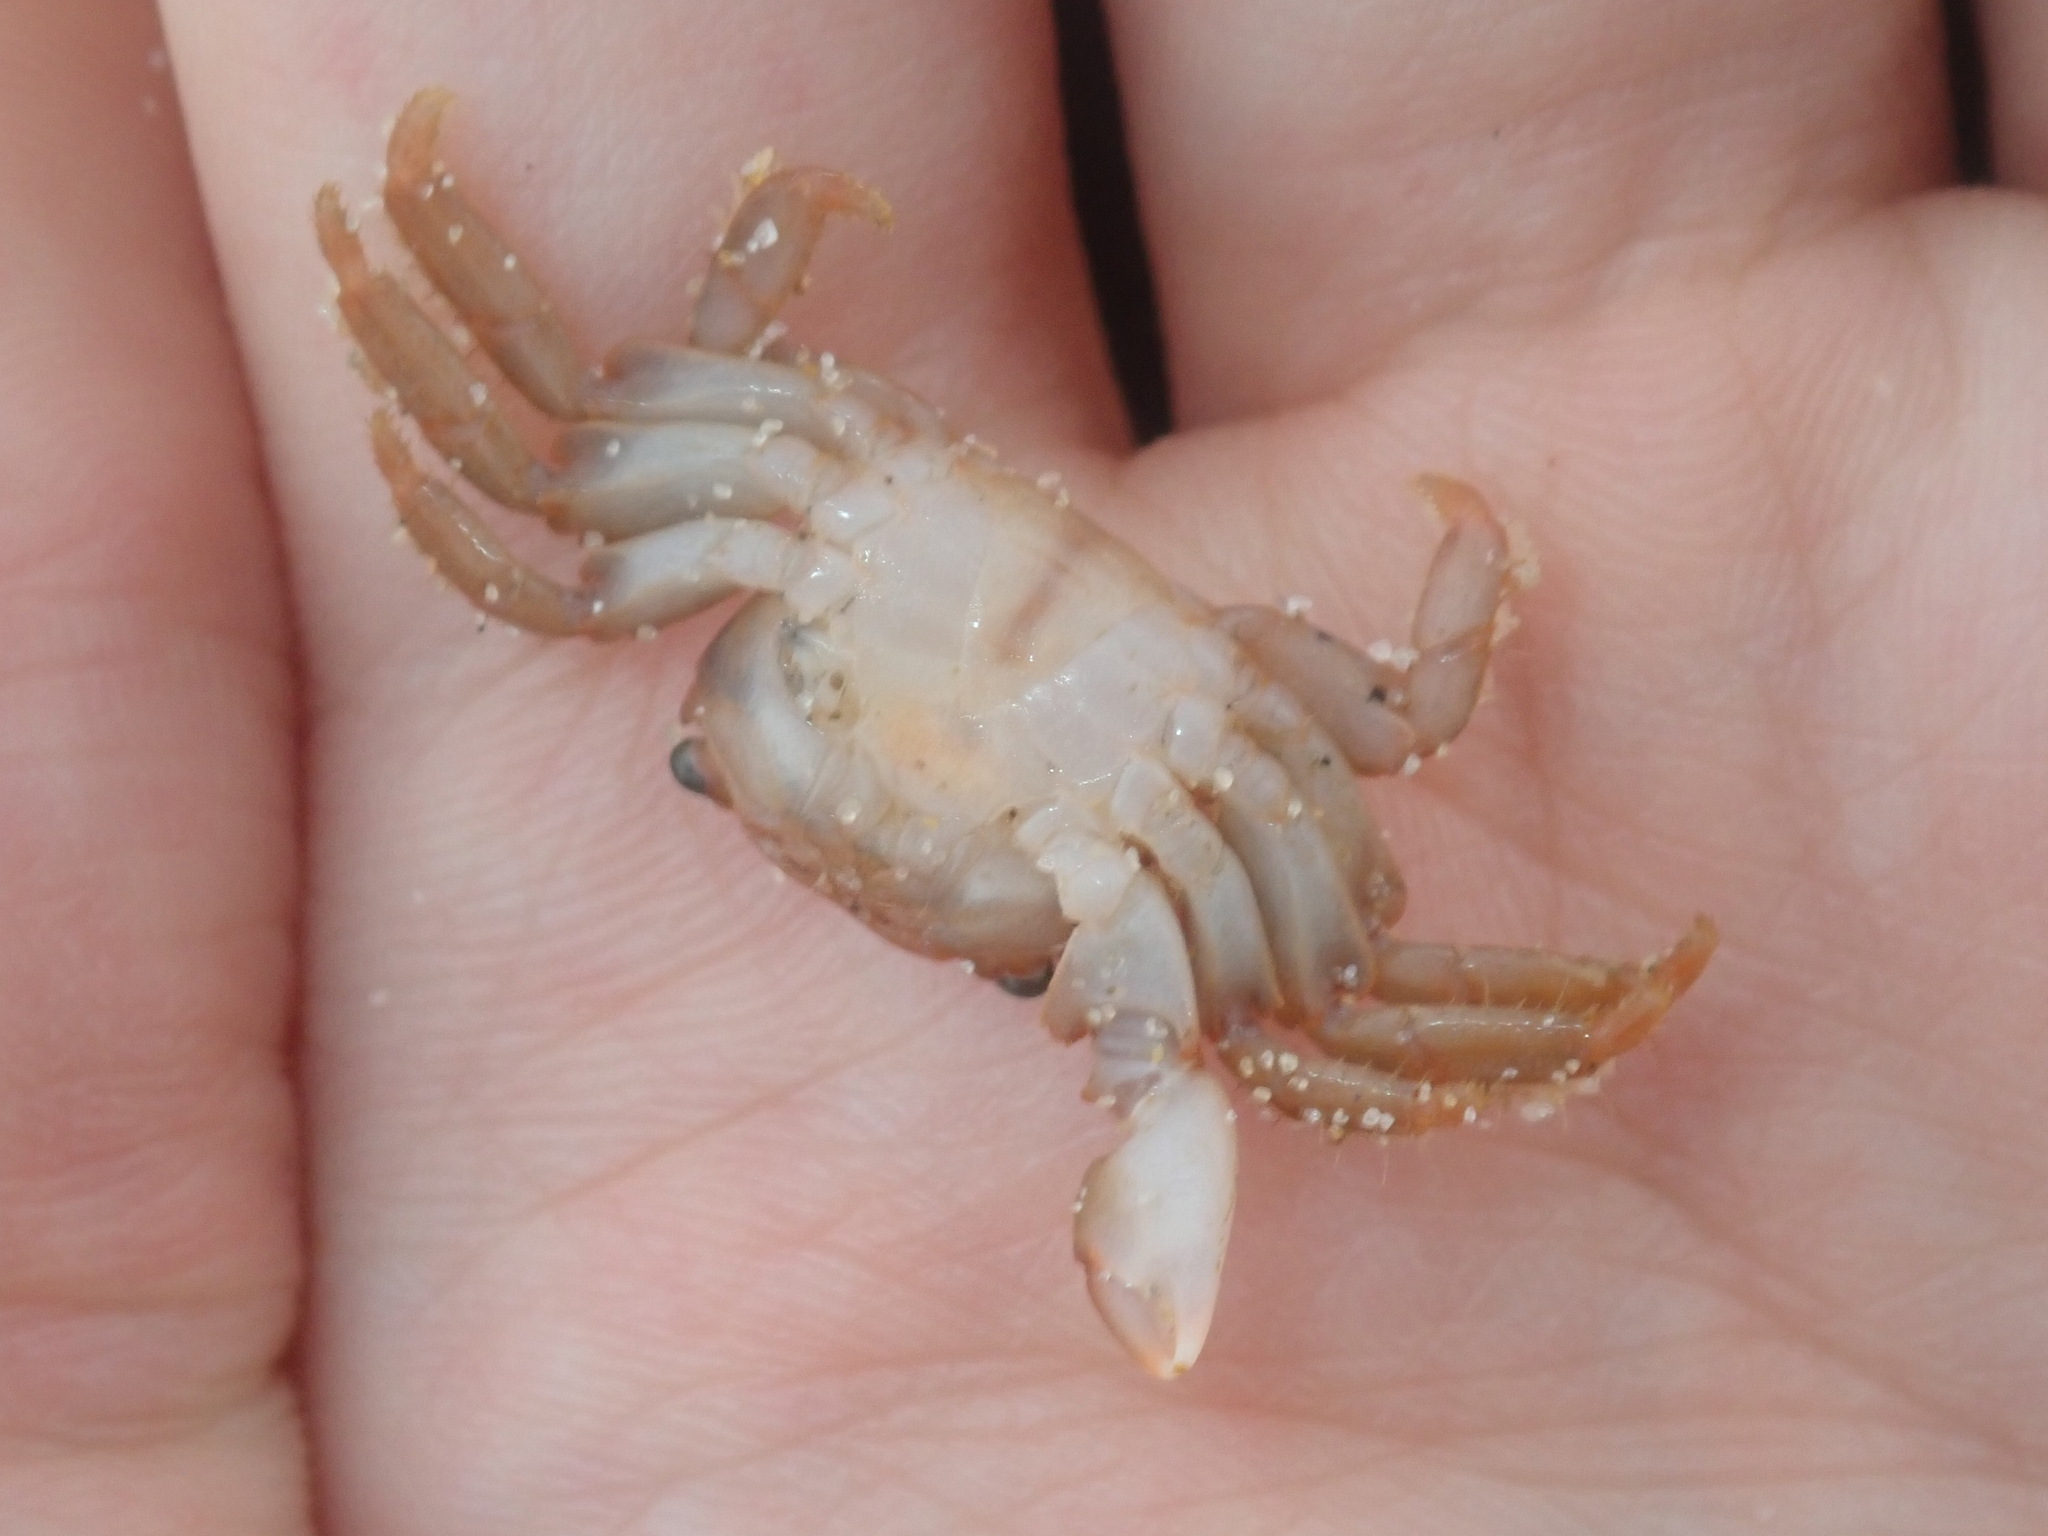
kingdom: Animalia
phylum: Arthropoda
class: Malacostraca
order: Decapoda
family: Grapsidae
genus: Planes
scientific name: Planes minutus
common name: Gulf weed crab
